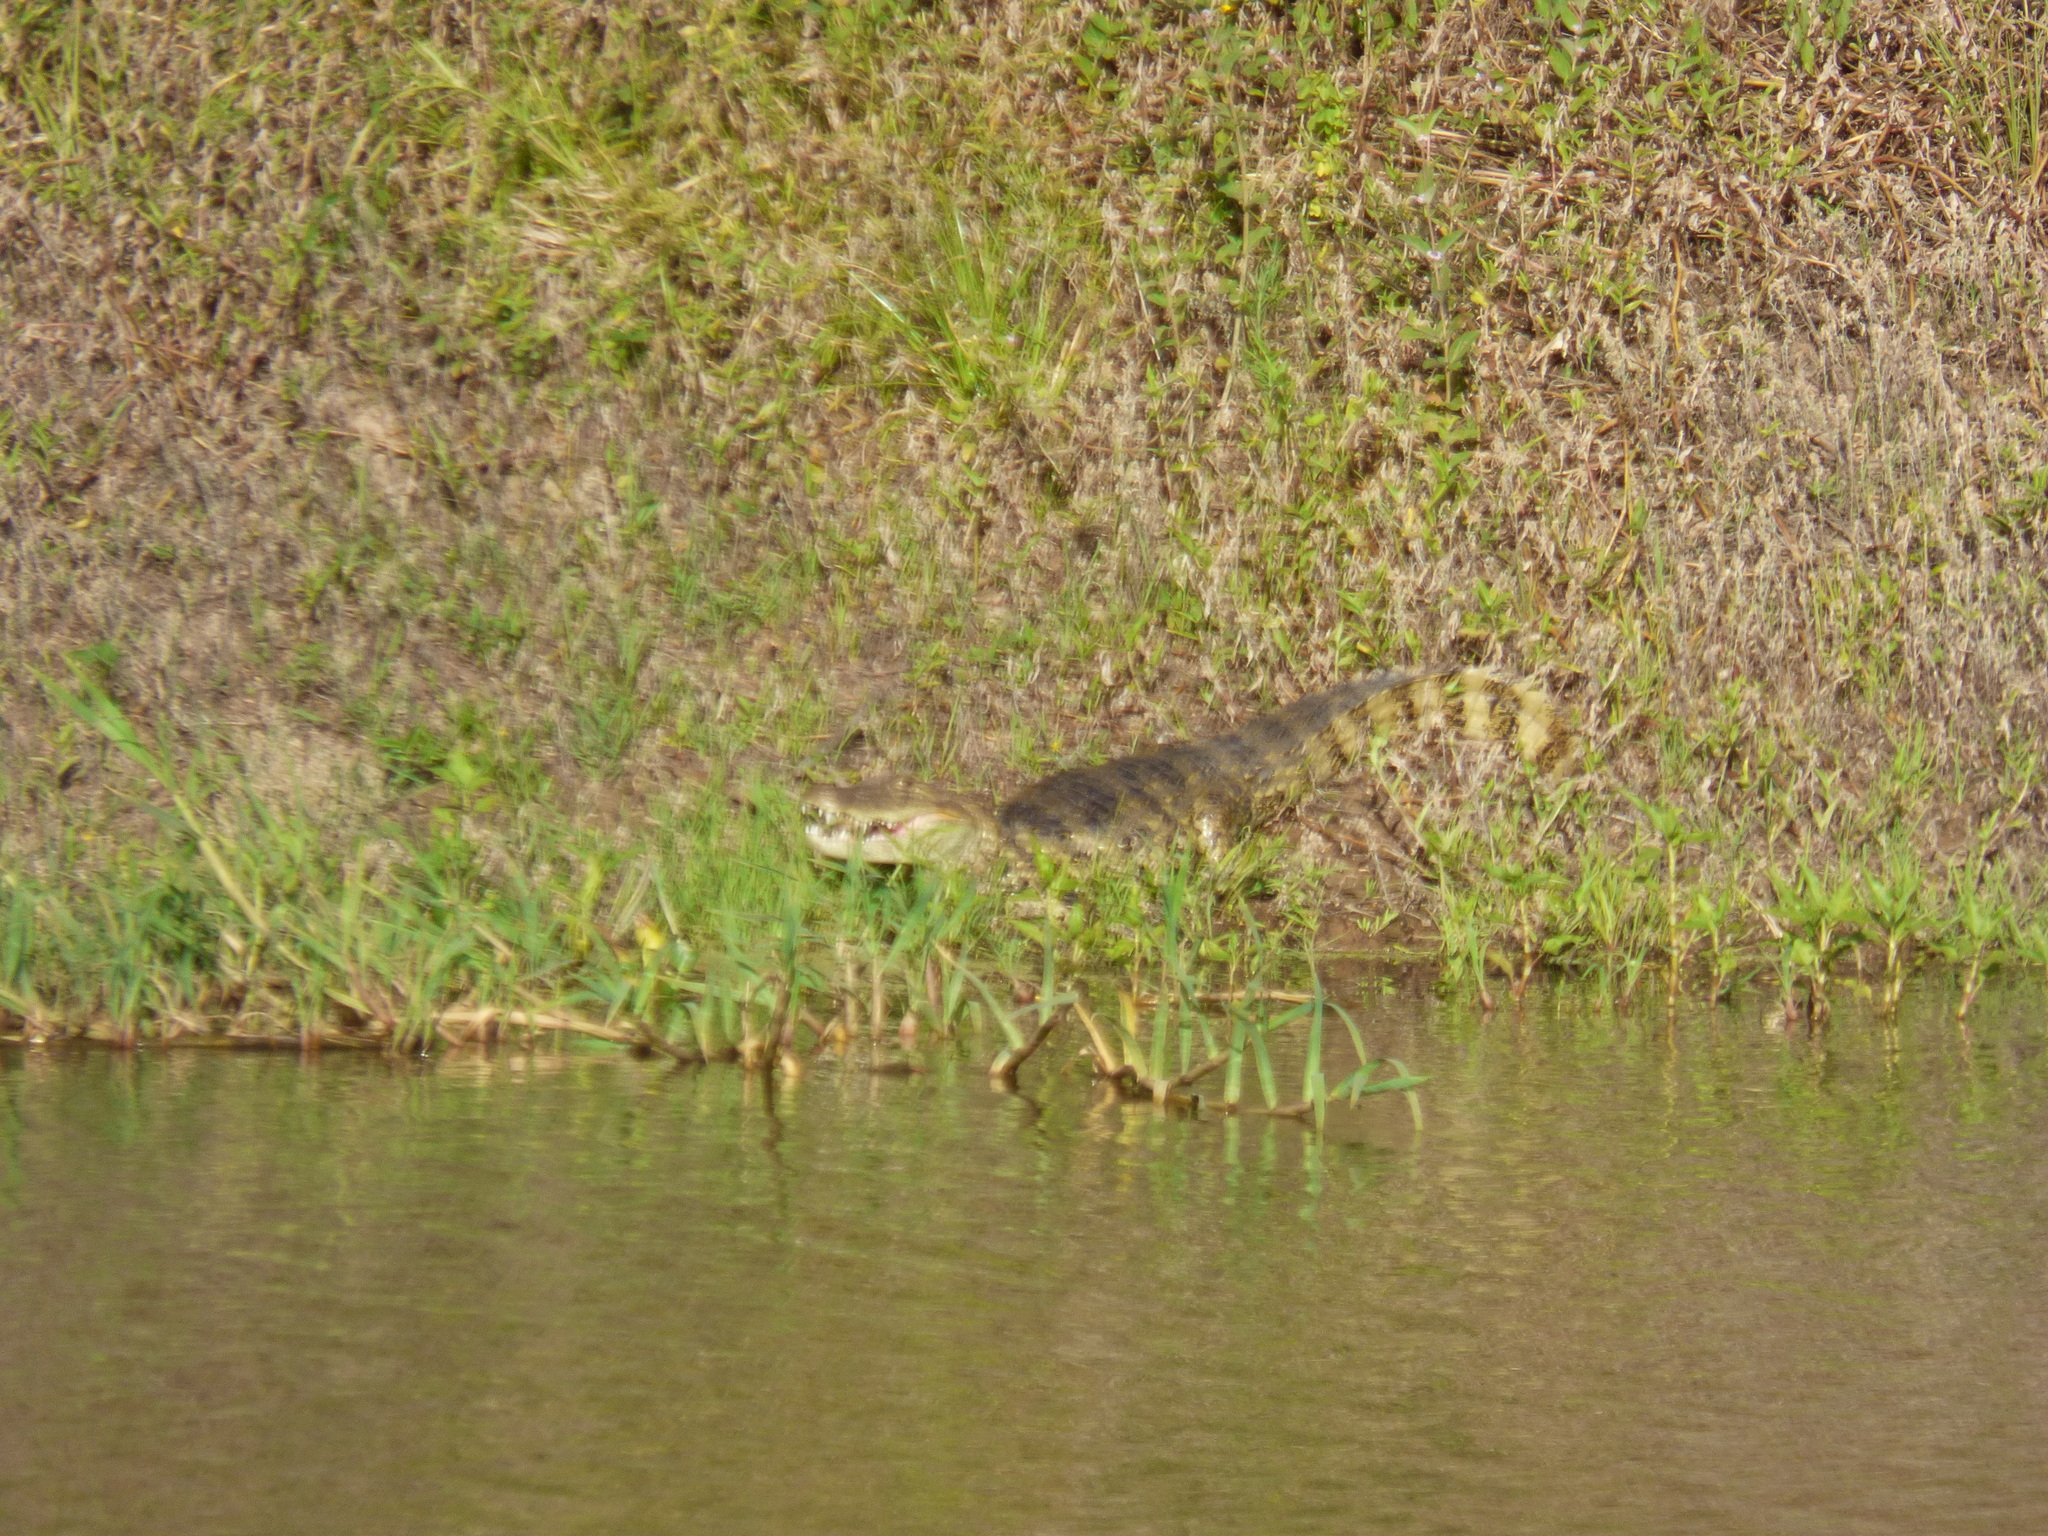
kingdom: Animalia
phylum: Chordata
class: Crocodylia
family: Alligatoridae
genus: Caiman
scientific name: Caiman latirostris
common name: Broad-snouted caiman
